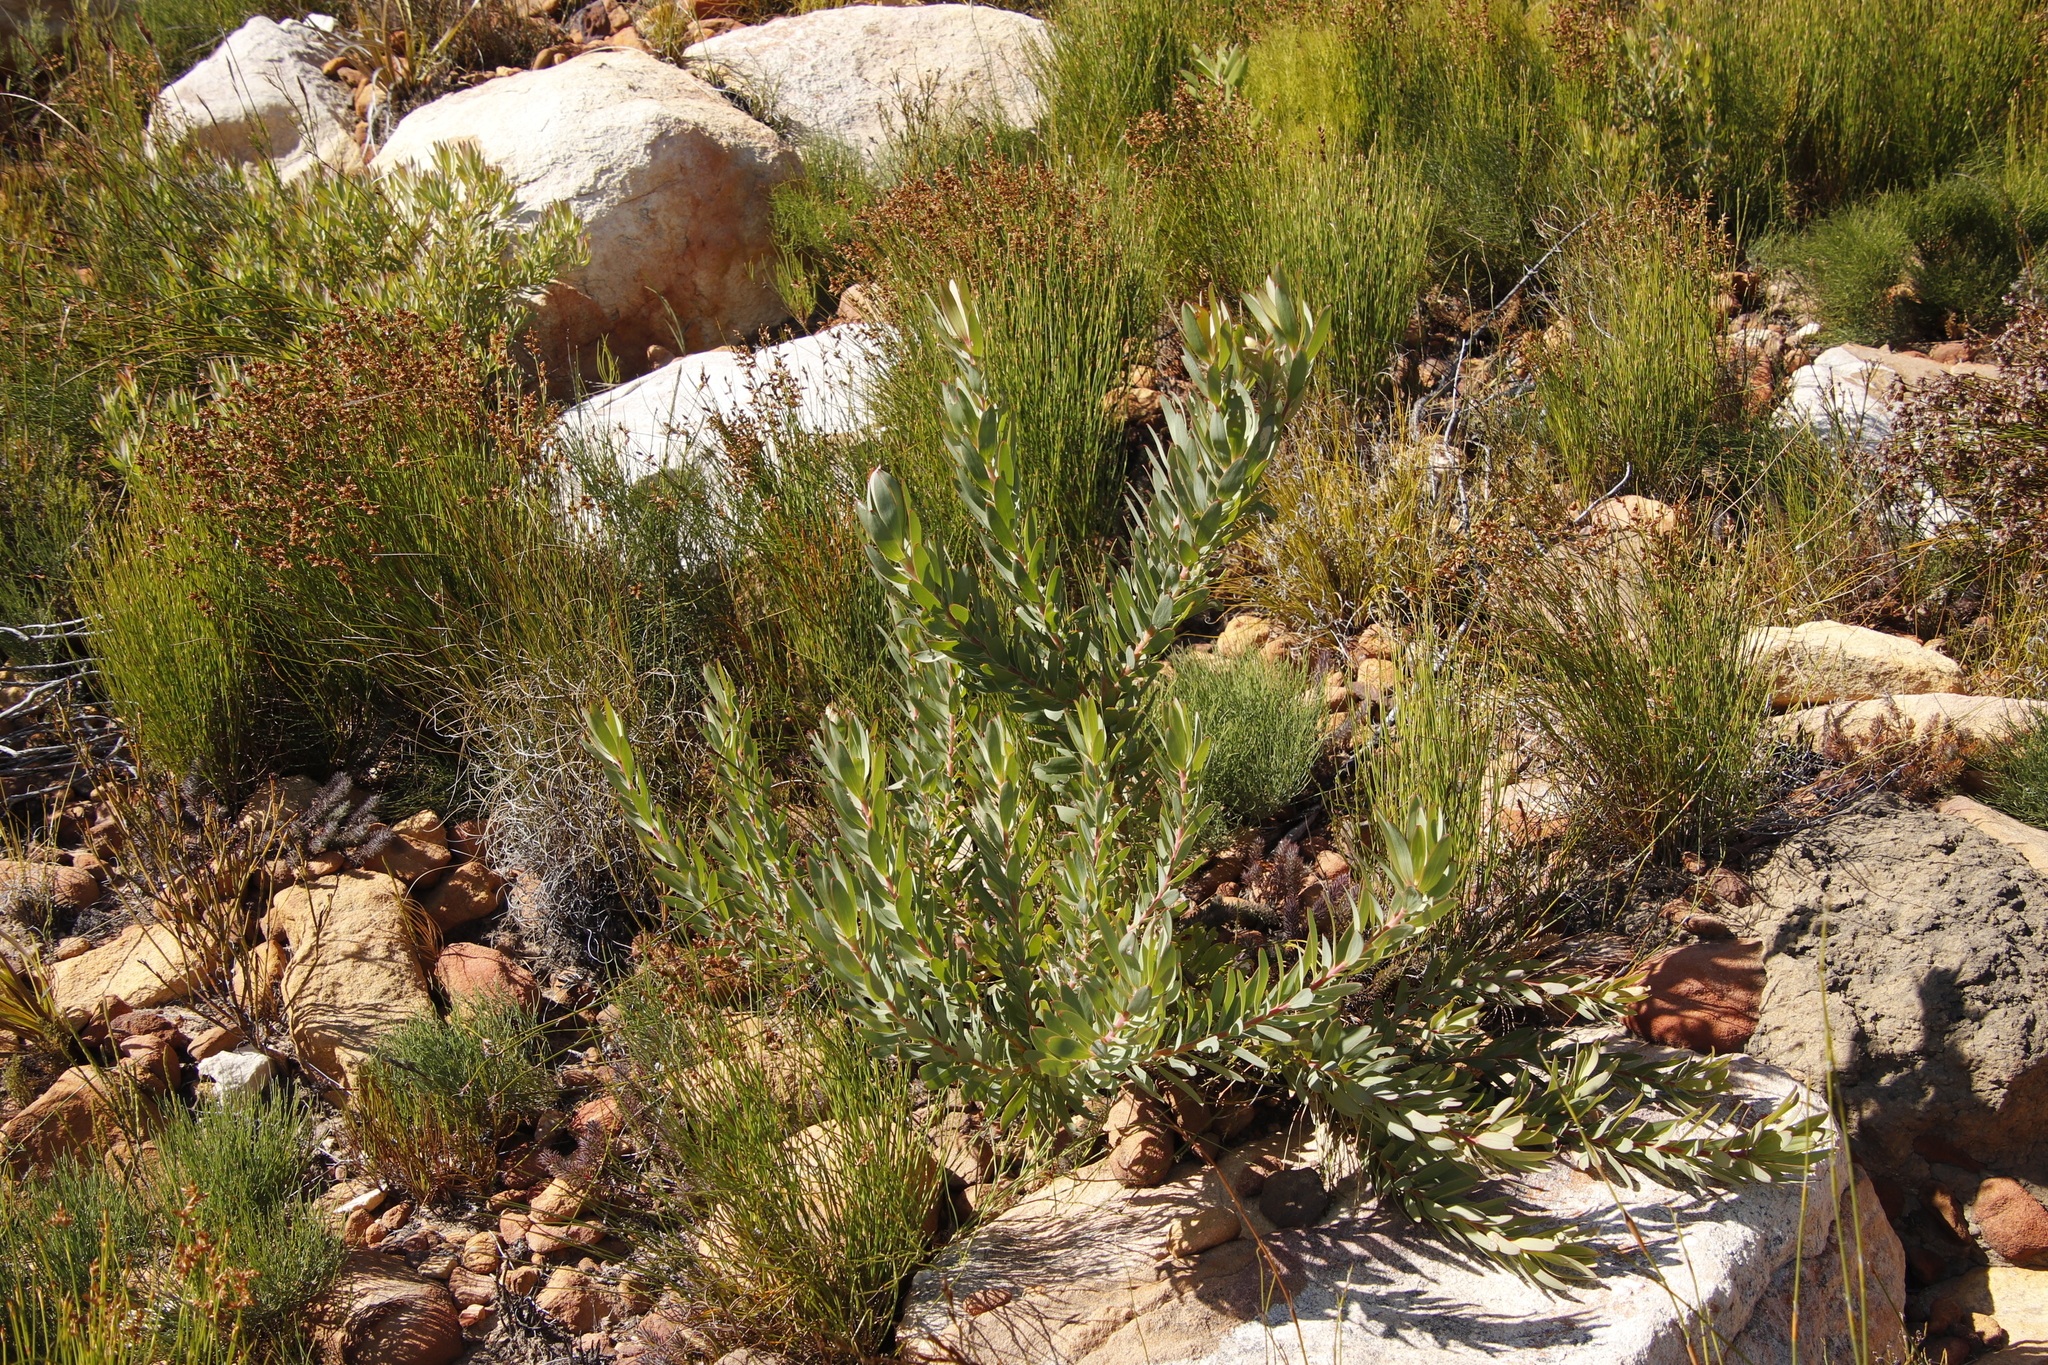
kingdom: Plantae
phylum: Tracheophyta
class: Magnoliopsida
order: Proteales
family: Proteaceae
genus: Leucadendron
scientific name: Leucadendron sessile
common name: Western sunbush
